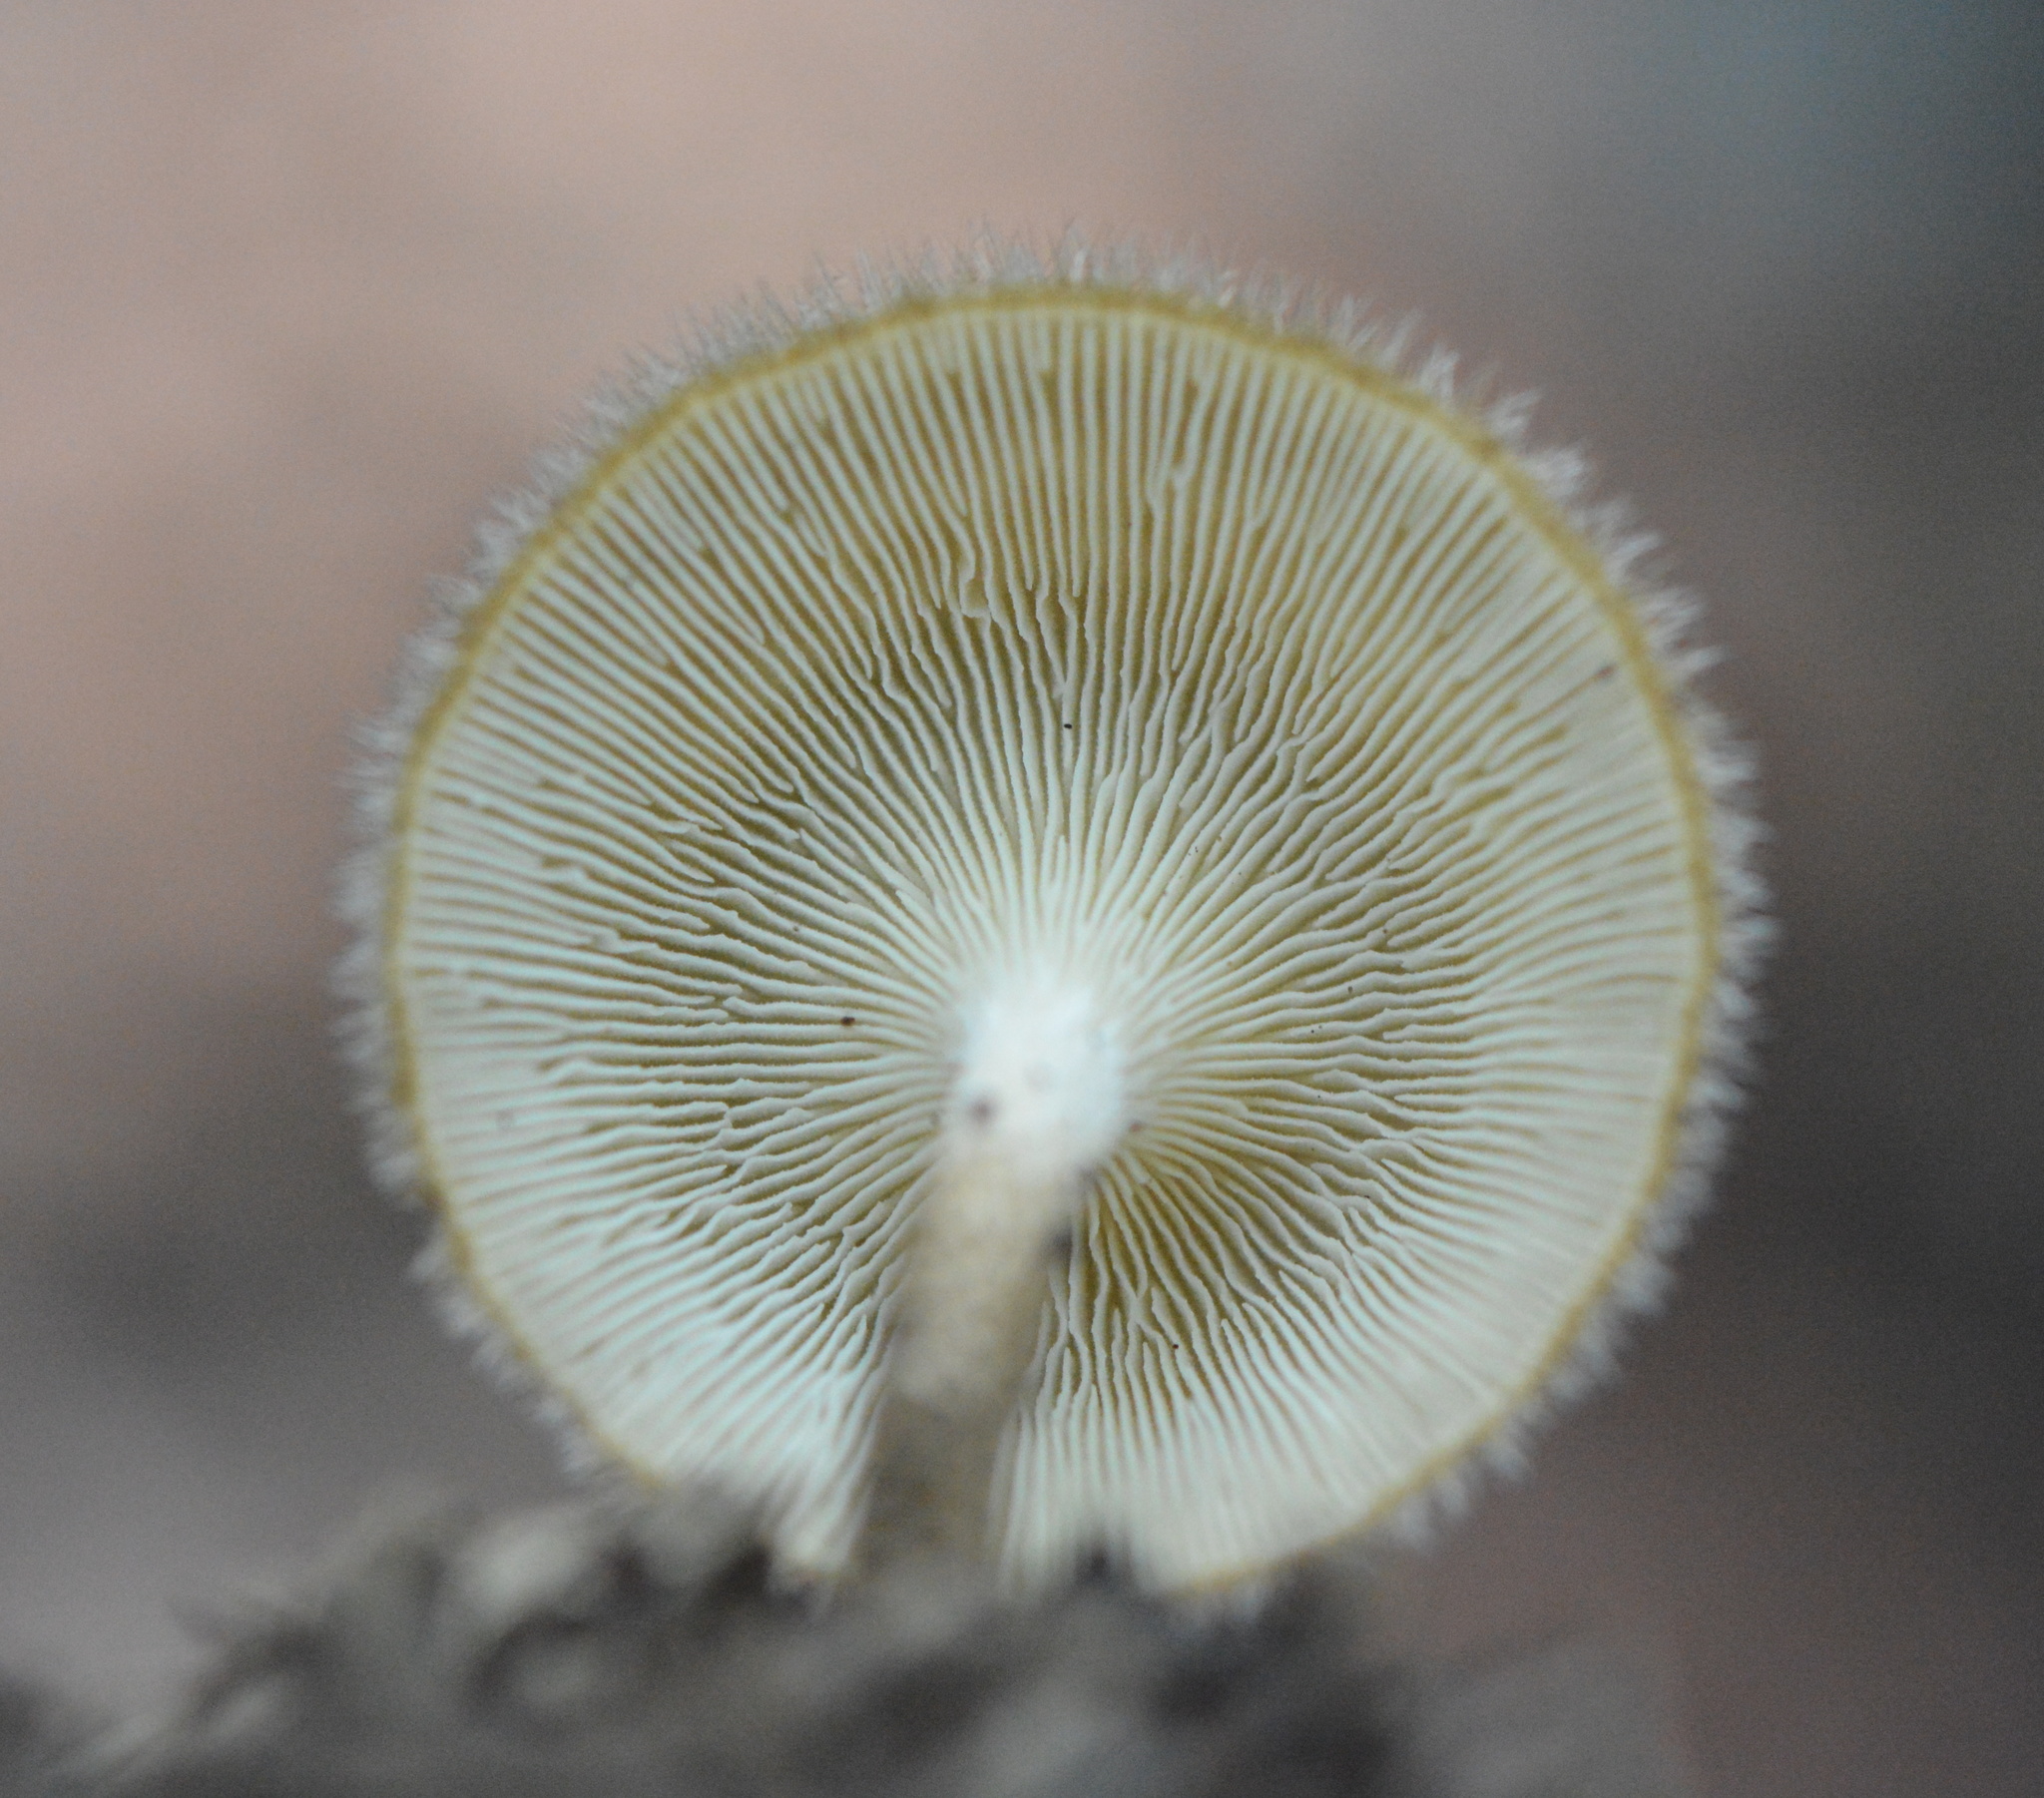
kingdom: Fungi
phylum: Basidiomycota
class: Agaricomycetes
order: Polyporales
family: Polyporaceae
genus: Lentinus
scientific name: Lentinus crinitus
